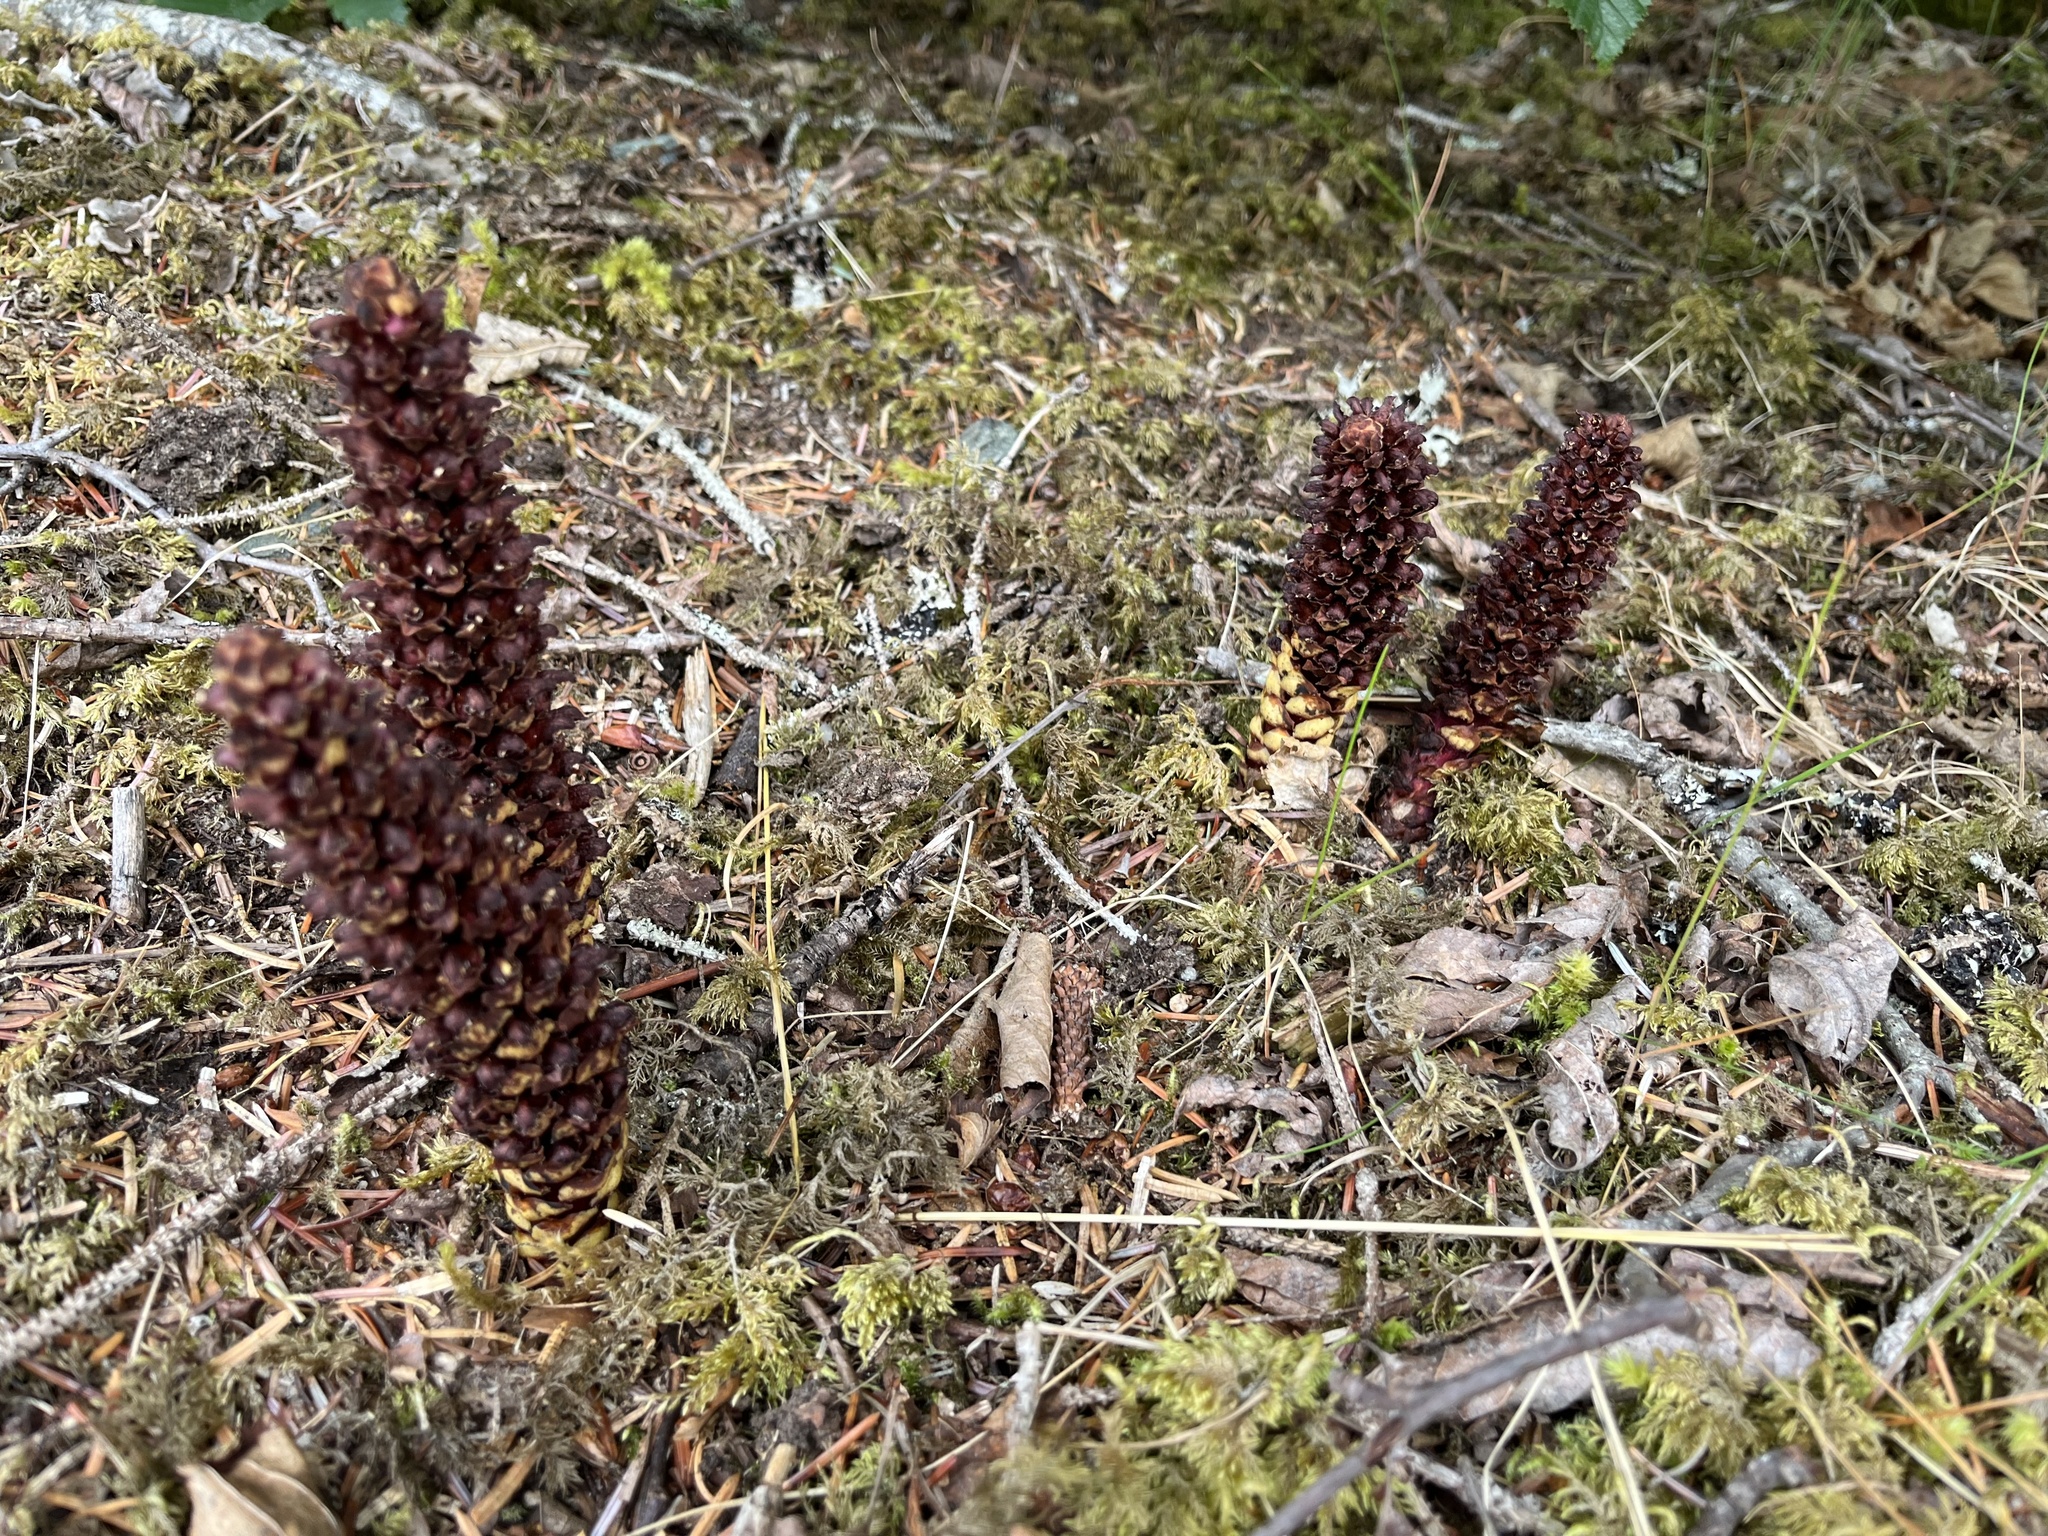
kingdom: Plantae
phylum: Tracheophyta
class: Magnoliopsida
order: Lamiales
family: Orobanchaceae
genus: Boschniakia
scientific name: Boschniakia rossica
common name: Poque
